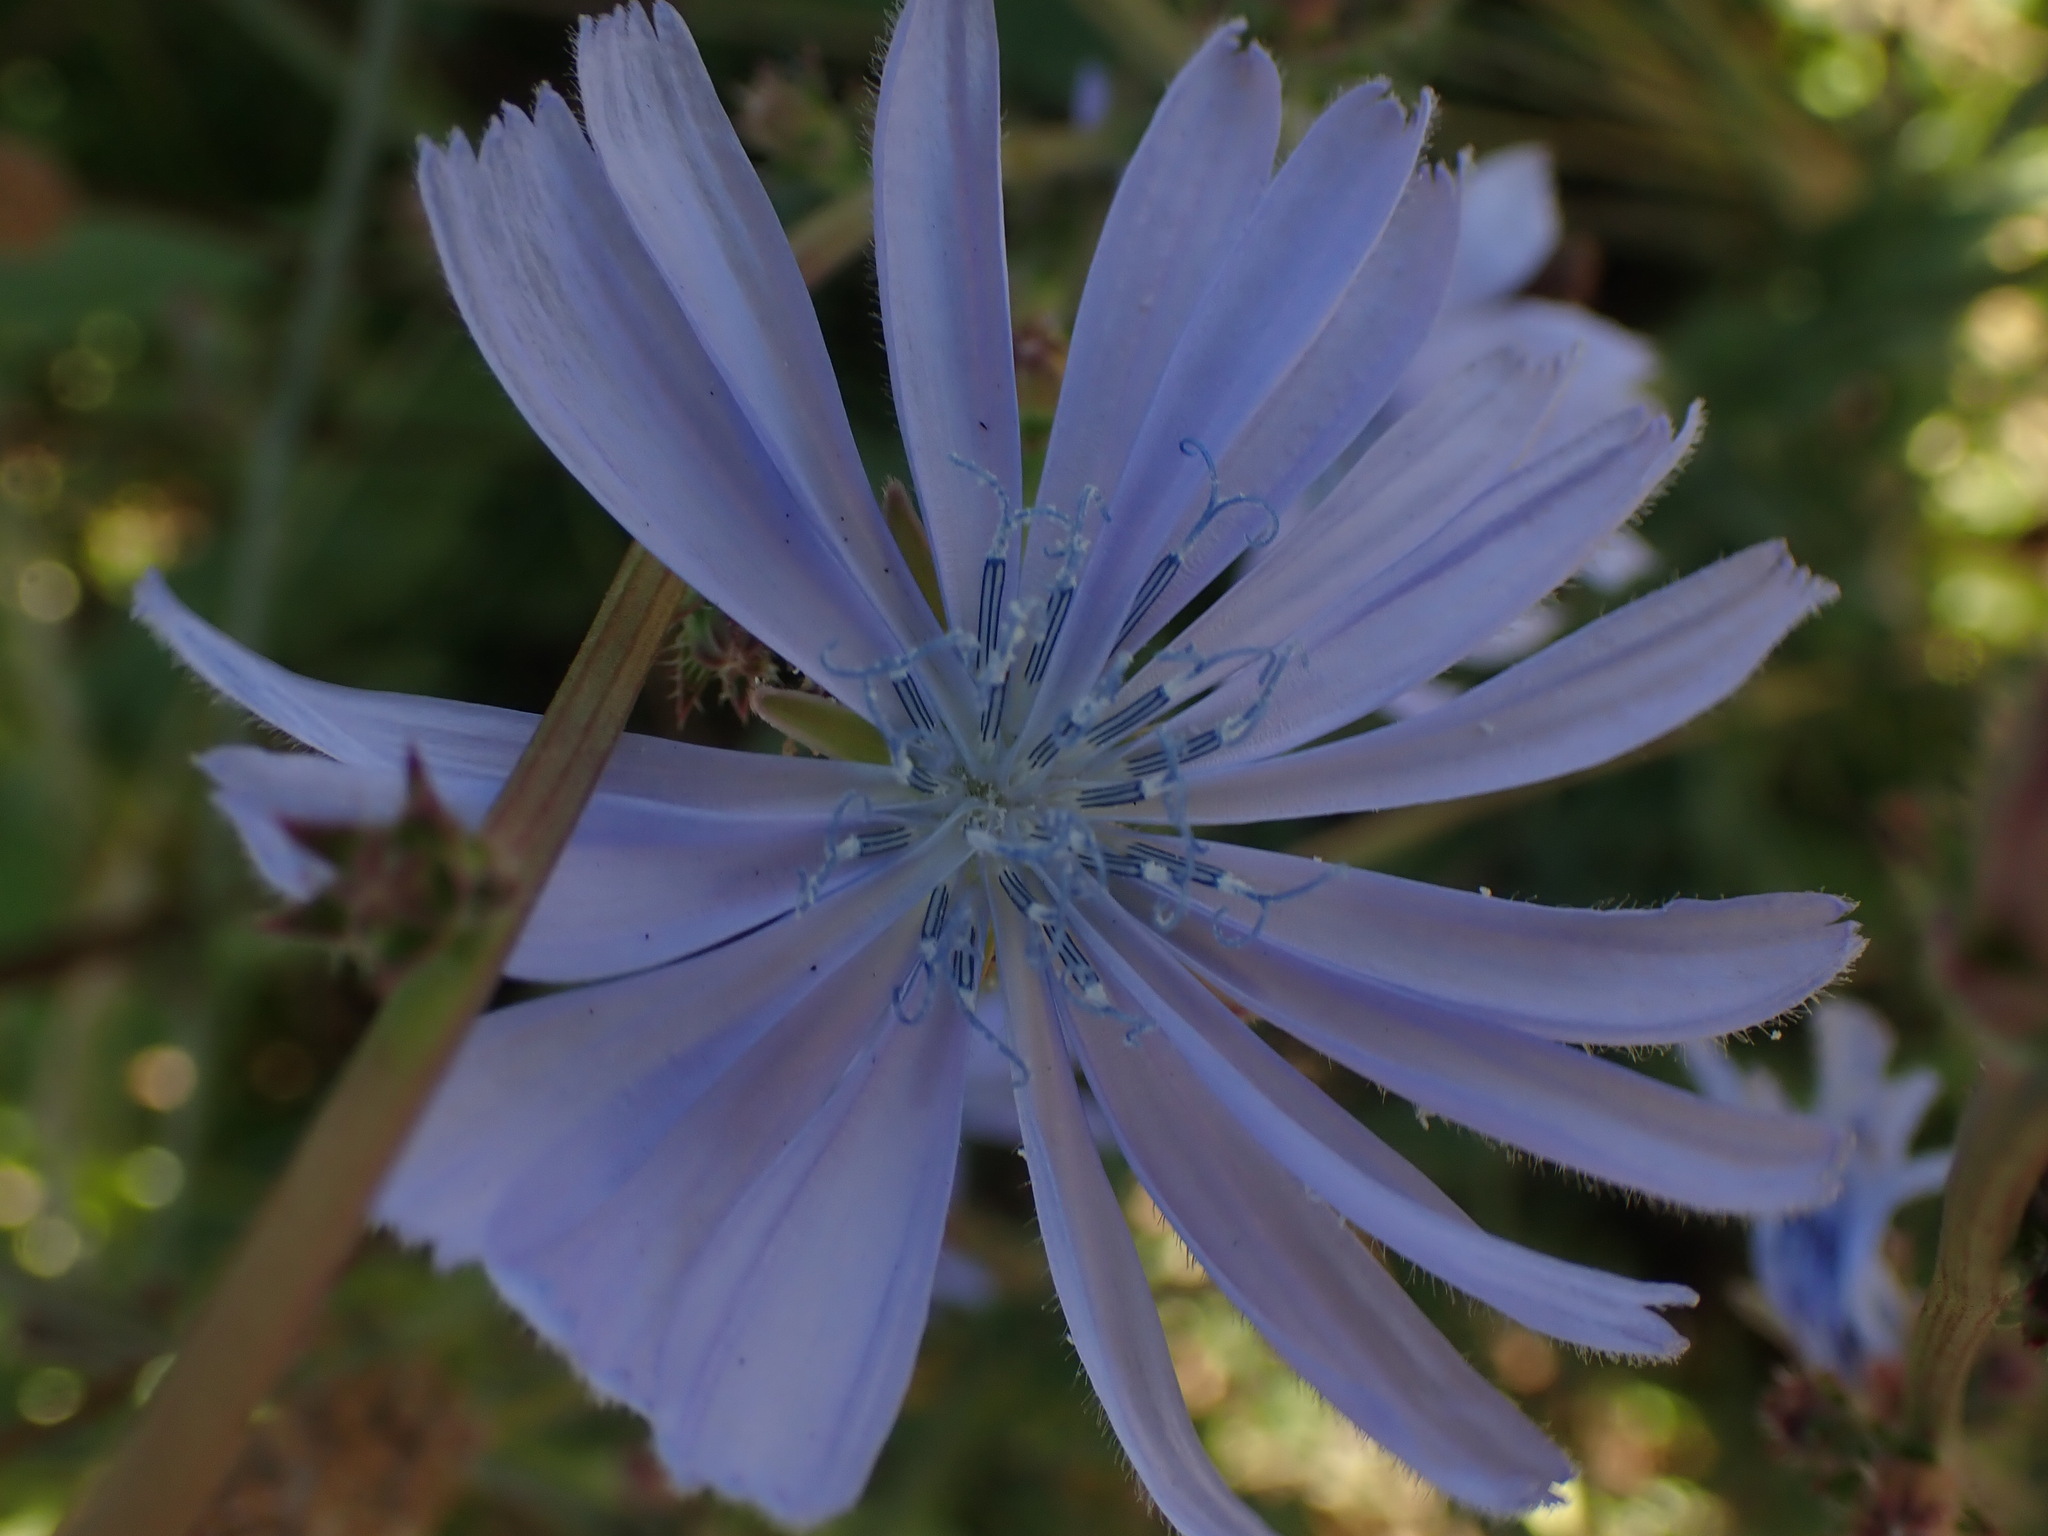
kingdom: Plantae
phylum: Tracheophyta
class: Magnoliopsida
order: Asterales
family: Asteraceae
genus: Cichorium
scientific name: Cichorium intybus
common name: Chicory
